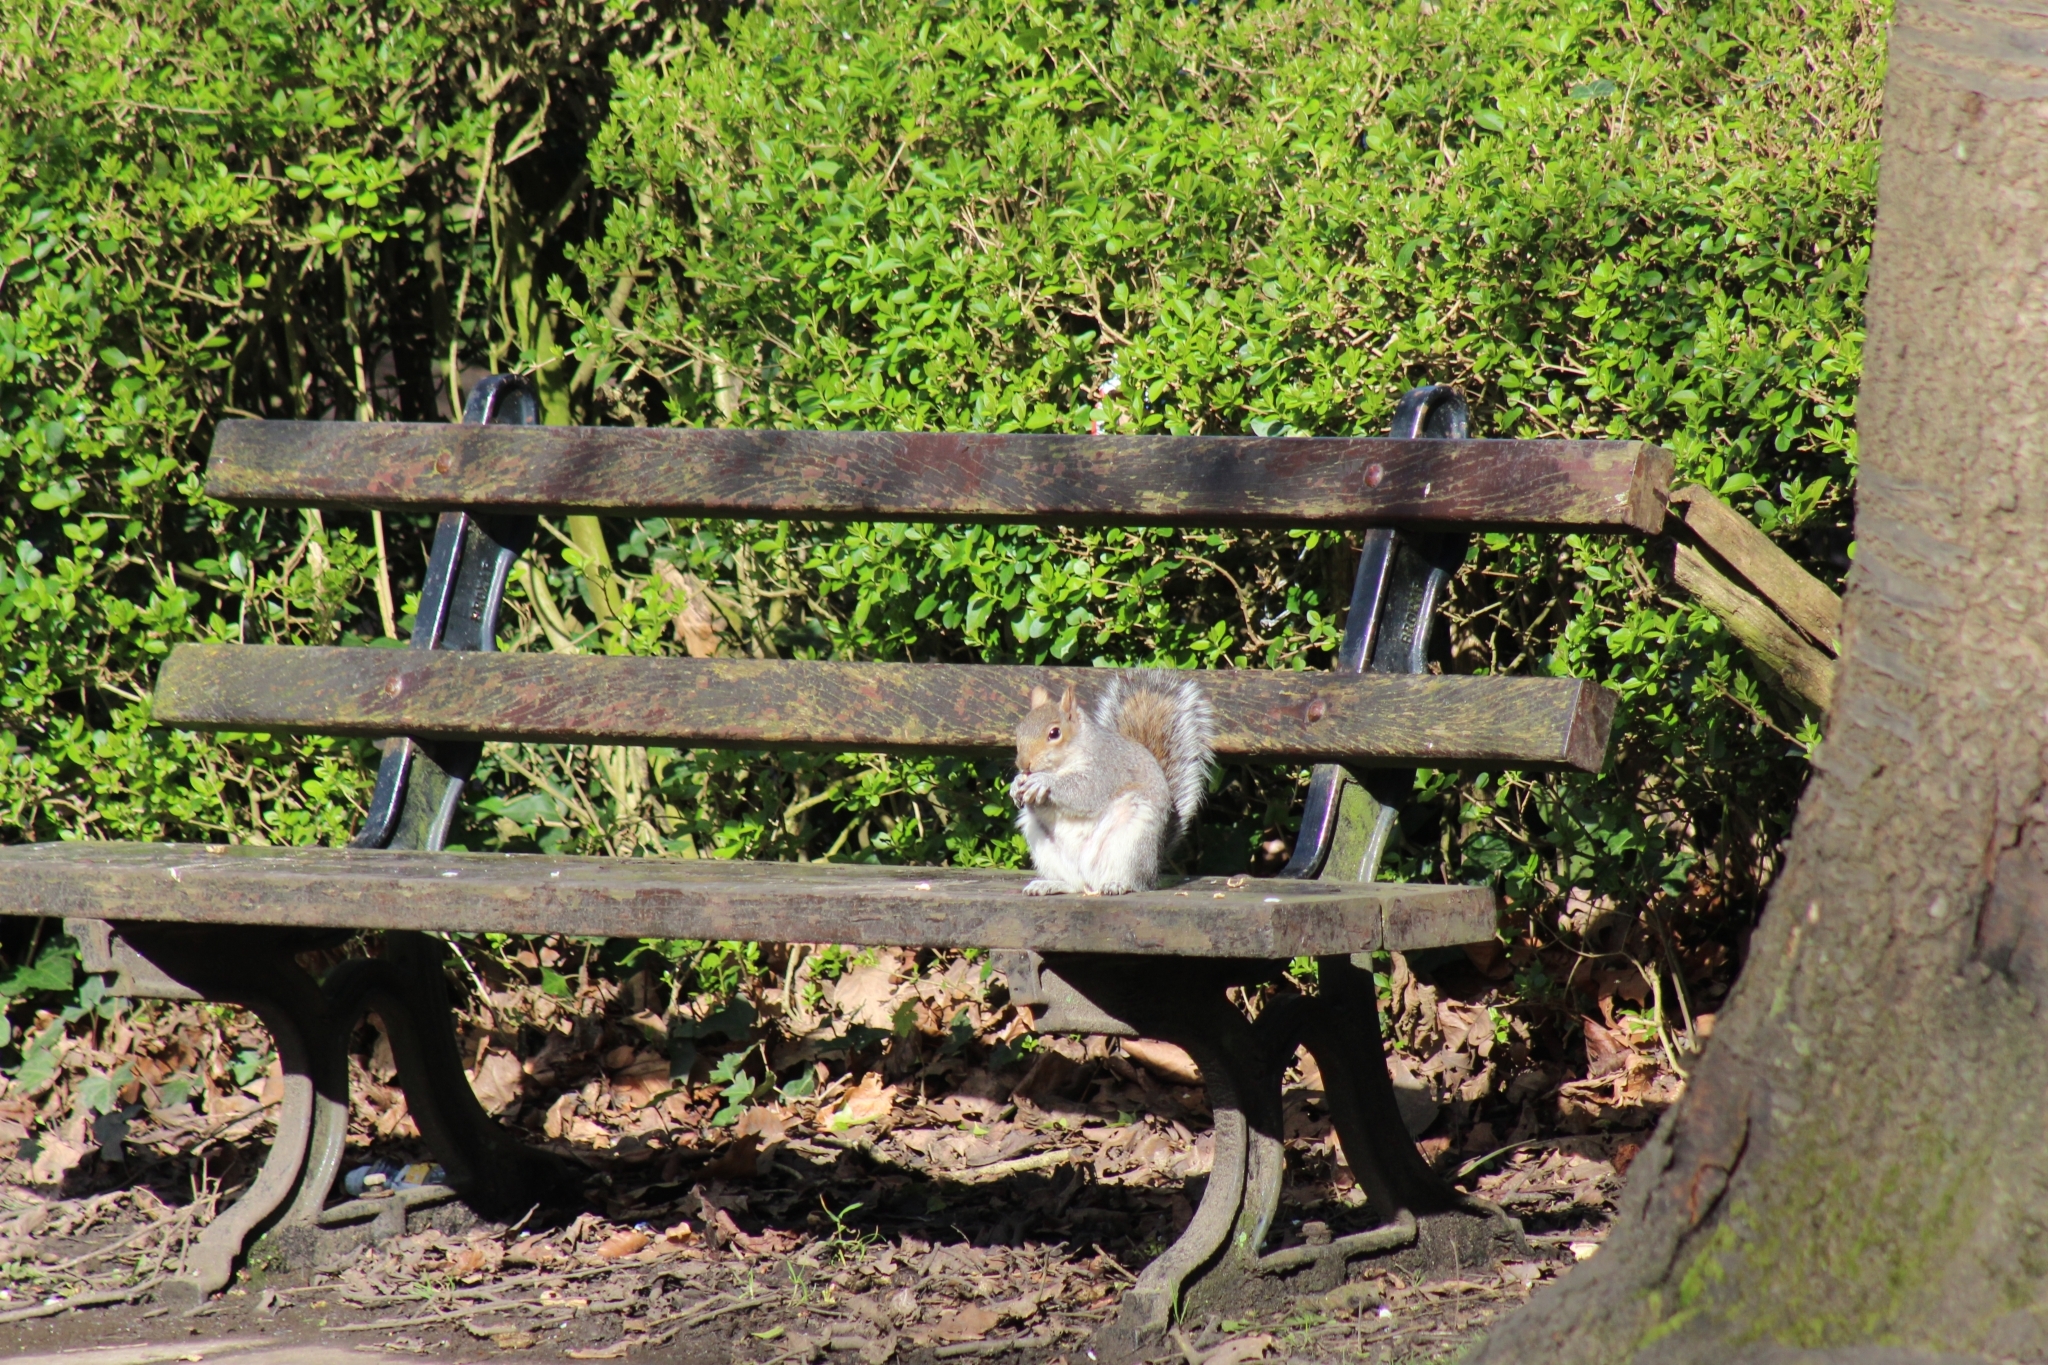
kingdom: Animalia
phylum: Chordata
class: Mammalia
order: Rodentia
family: Sciuridae
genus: Sciurus
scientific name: Sciurus carolinensis
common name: Eastern gray squirrel
